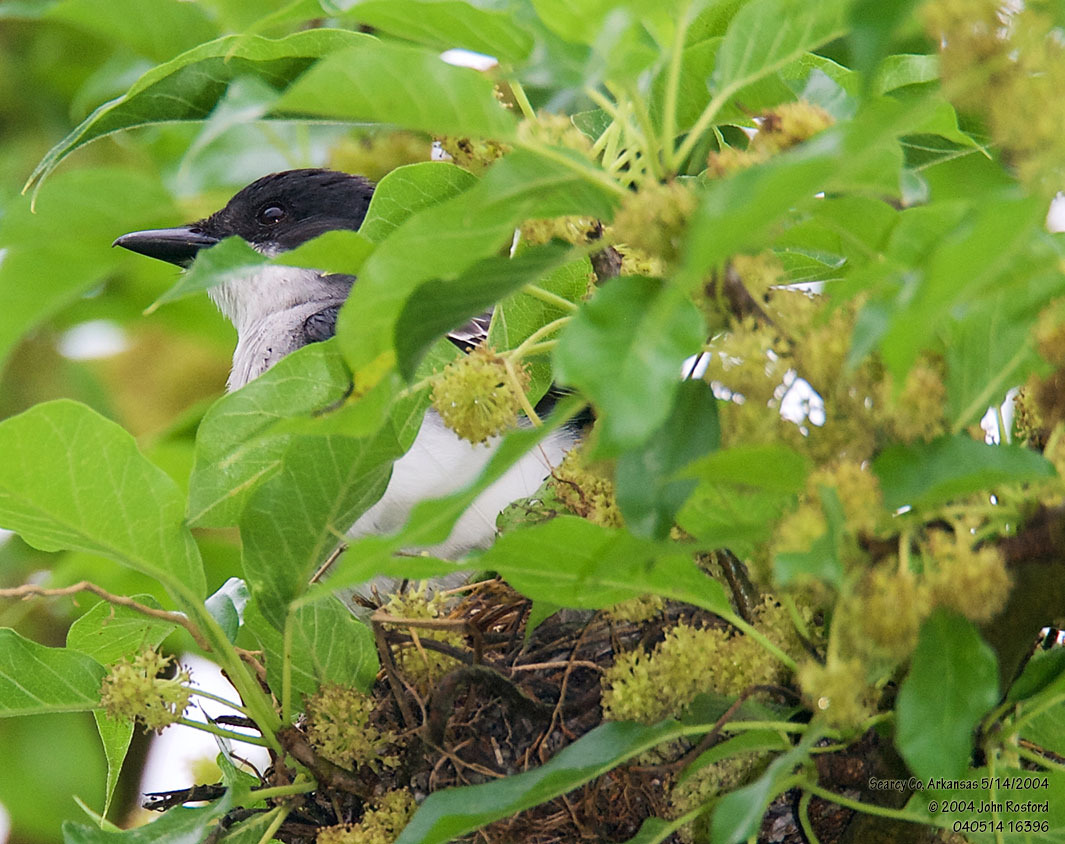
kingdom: Animalia
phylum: Chordata
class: Aves
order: Passeriformes
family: Tyrannidae
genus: Tyrannus
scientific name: Tyrannus tyrannus
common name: Eastern kingbird
